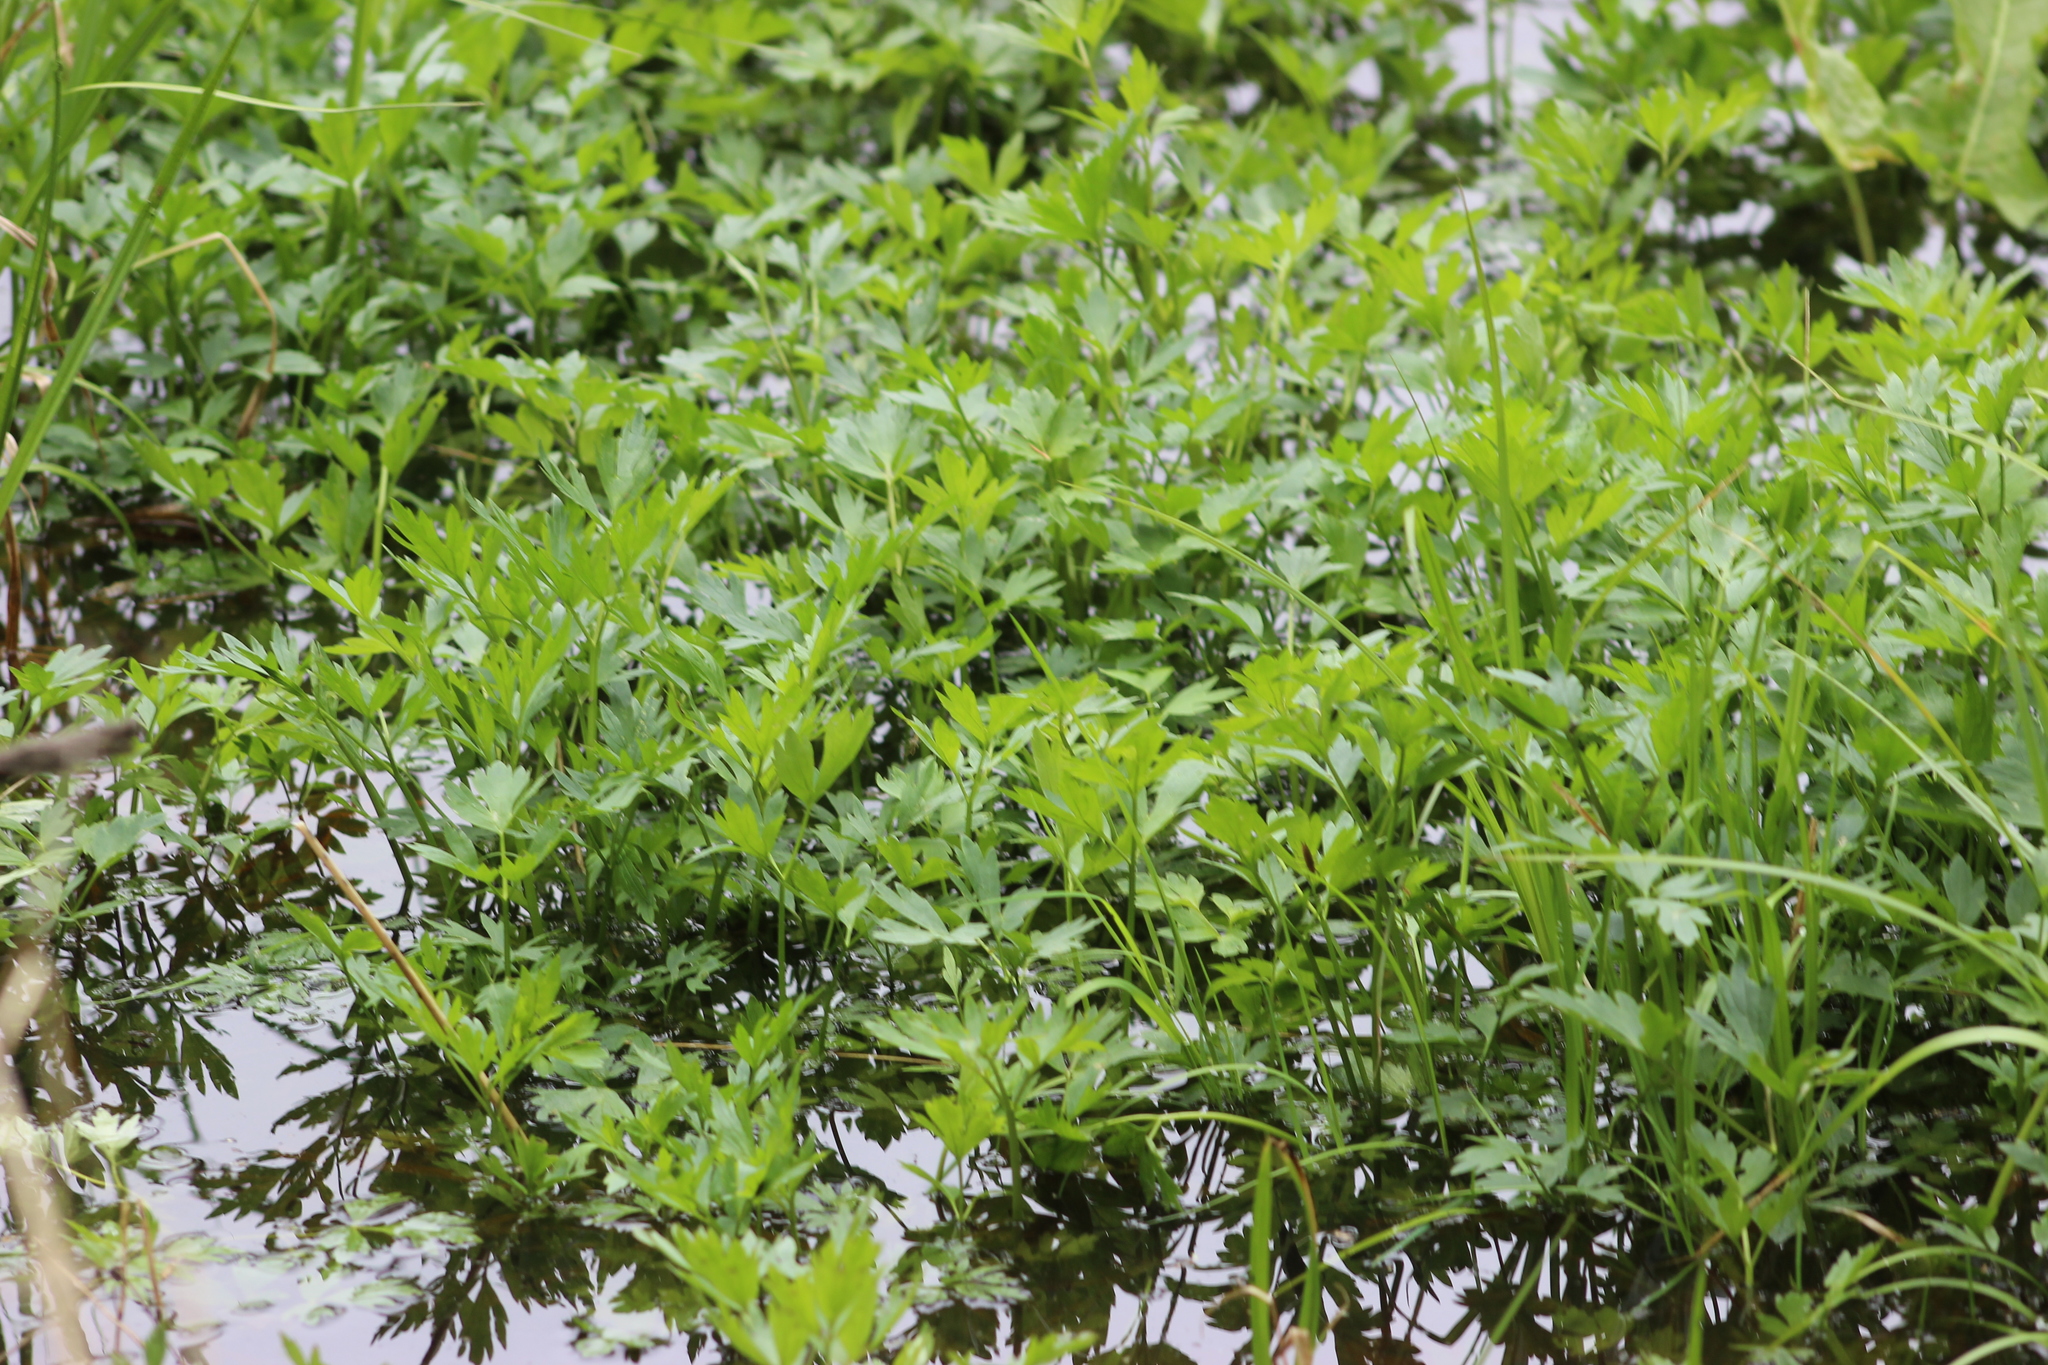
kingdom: Plantae
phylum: Tracheophyta
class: Magnoliopsida
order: Ranunculales
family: Ranunculaceae
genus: Ranunculus
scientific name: Ranunculus repens
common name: Creeping buttercup
